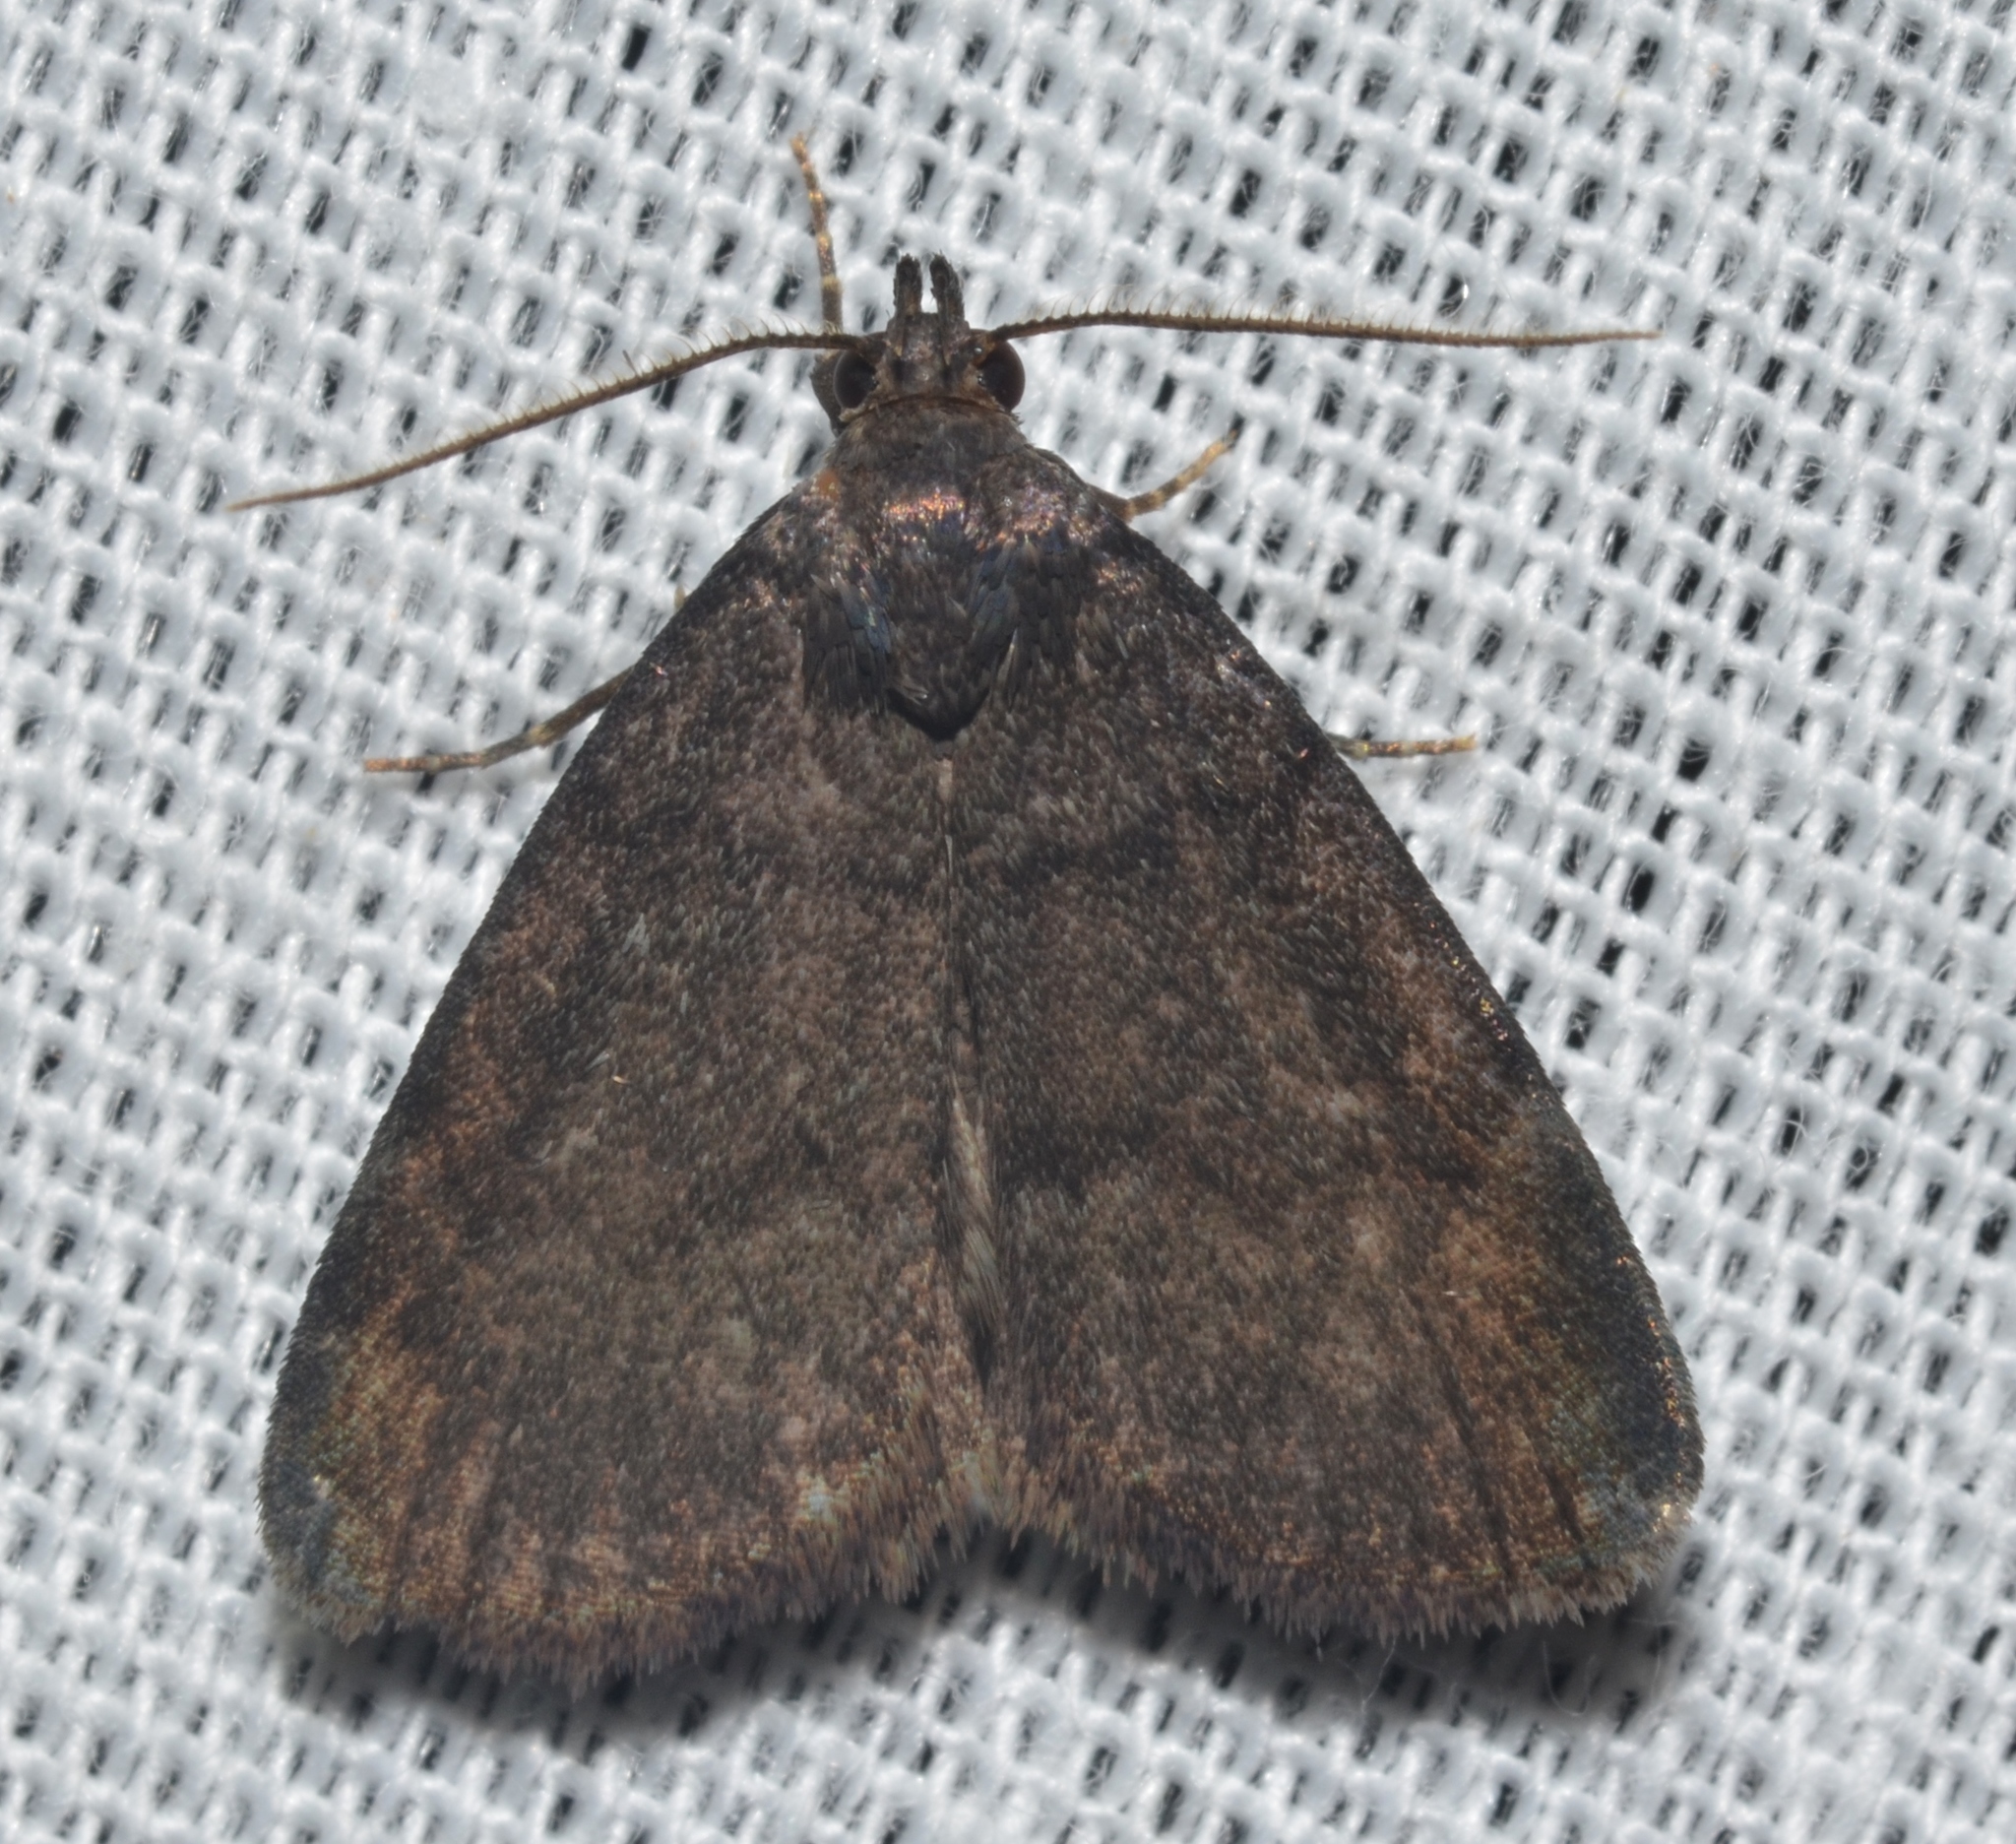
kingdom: Animalia
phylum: Arthropoda
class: Insecta
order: Lepidoptera
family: Erebidae
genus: Idia
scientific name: Idia rotundalis
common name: Rotund idia moth
